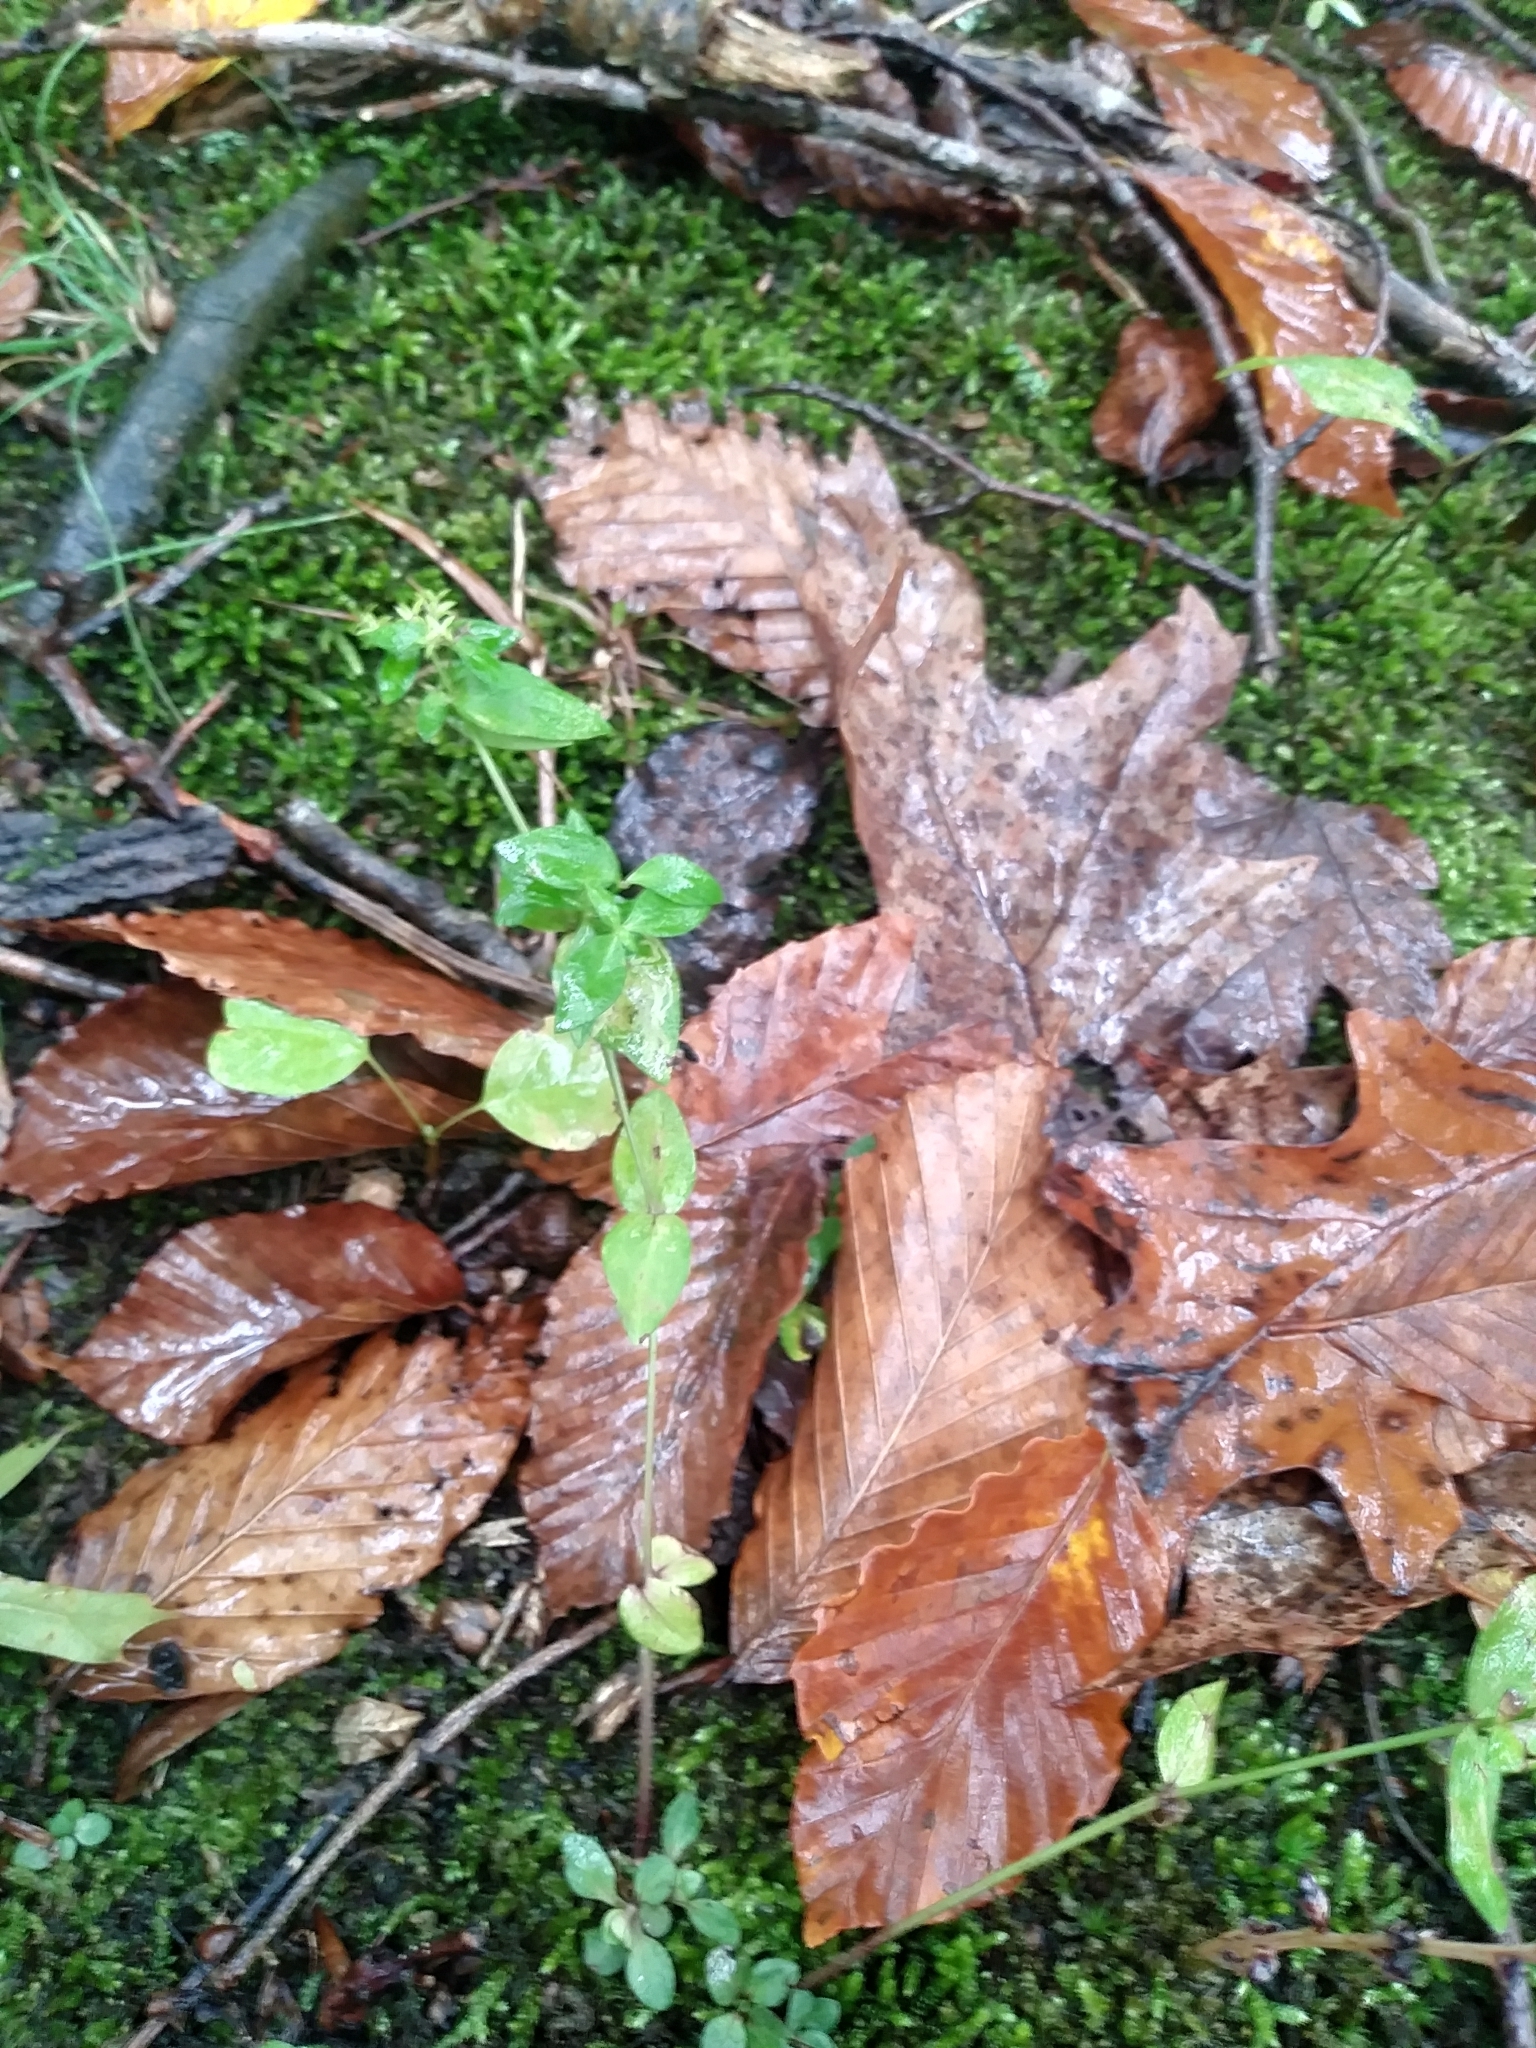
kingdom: Plantae
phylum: Tracheophyta
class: Magnoliopsida
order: Gentianales
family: Rubiaceae
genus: Houstonia
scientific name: Houstonia purpurea
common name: Summer bluet
